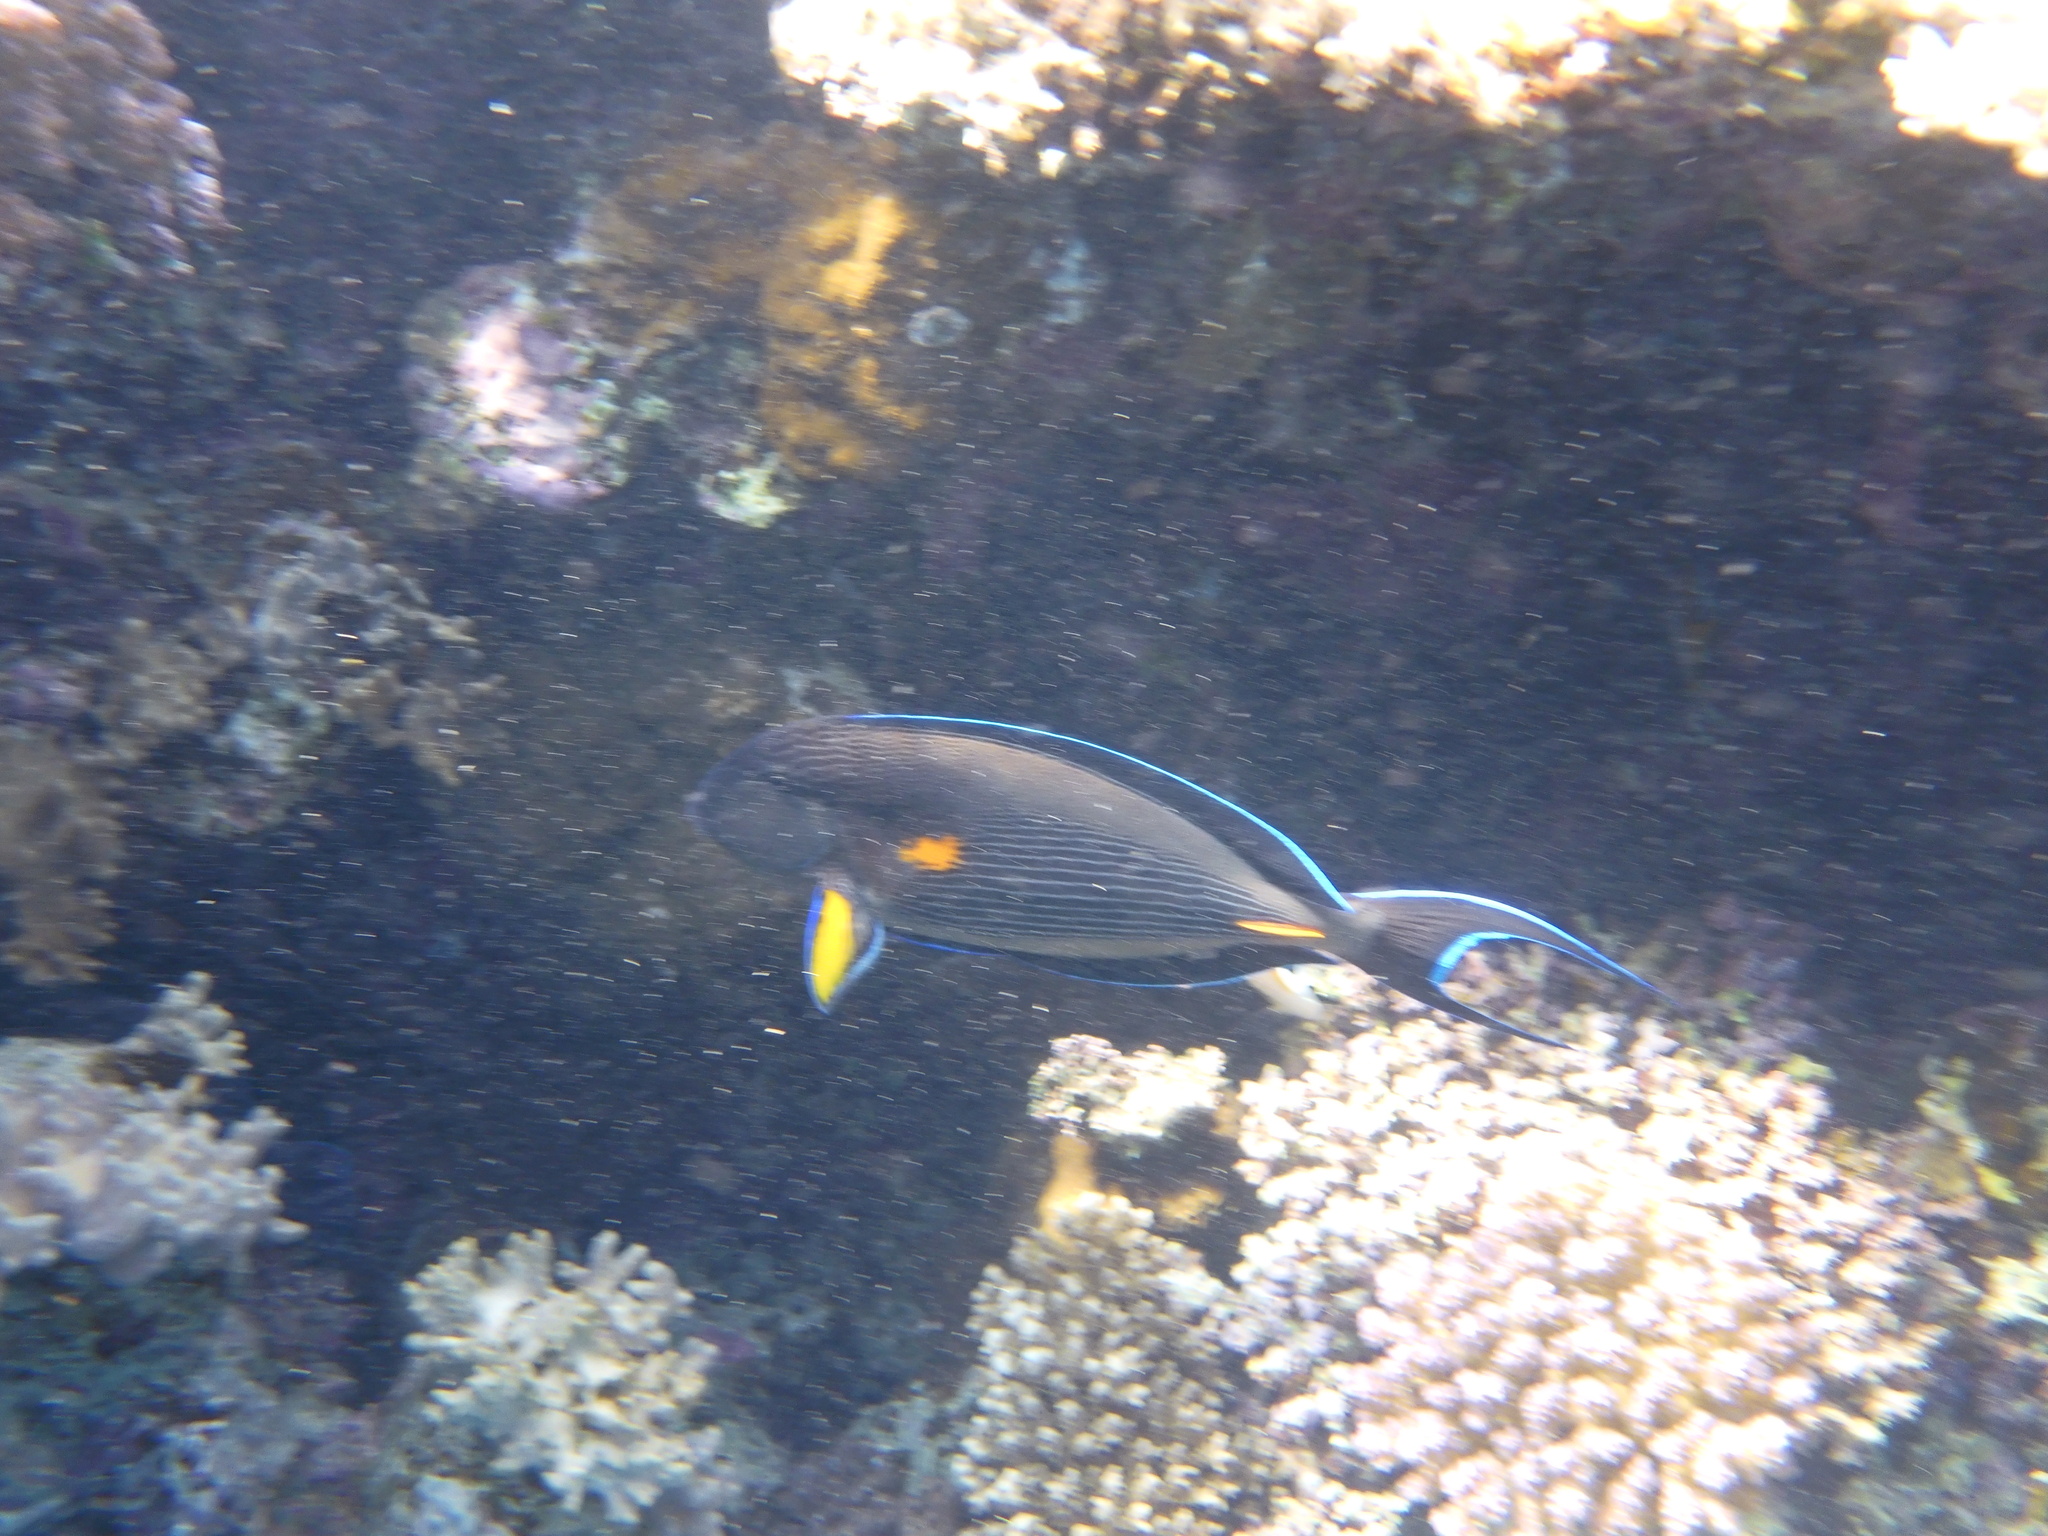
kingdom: Animalia
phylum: Chordata
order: Perciformes
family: Acanthuridae
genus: Acanthurus
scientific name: Acanthurus sohal
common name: Red sea surgeonfish
